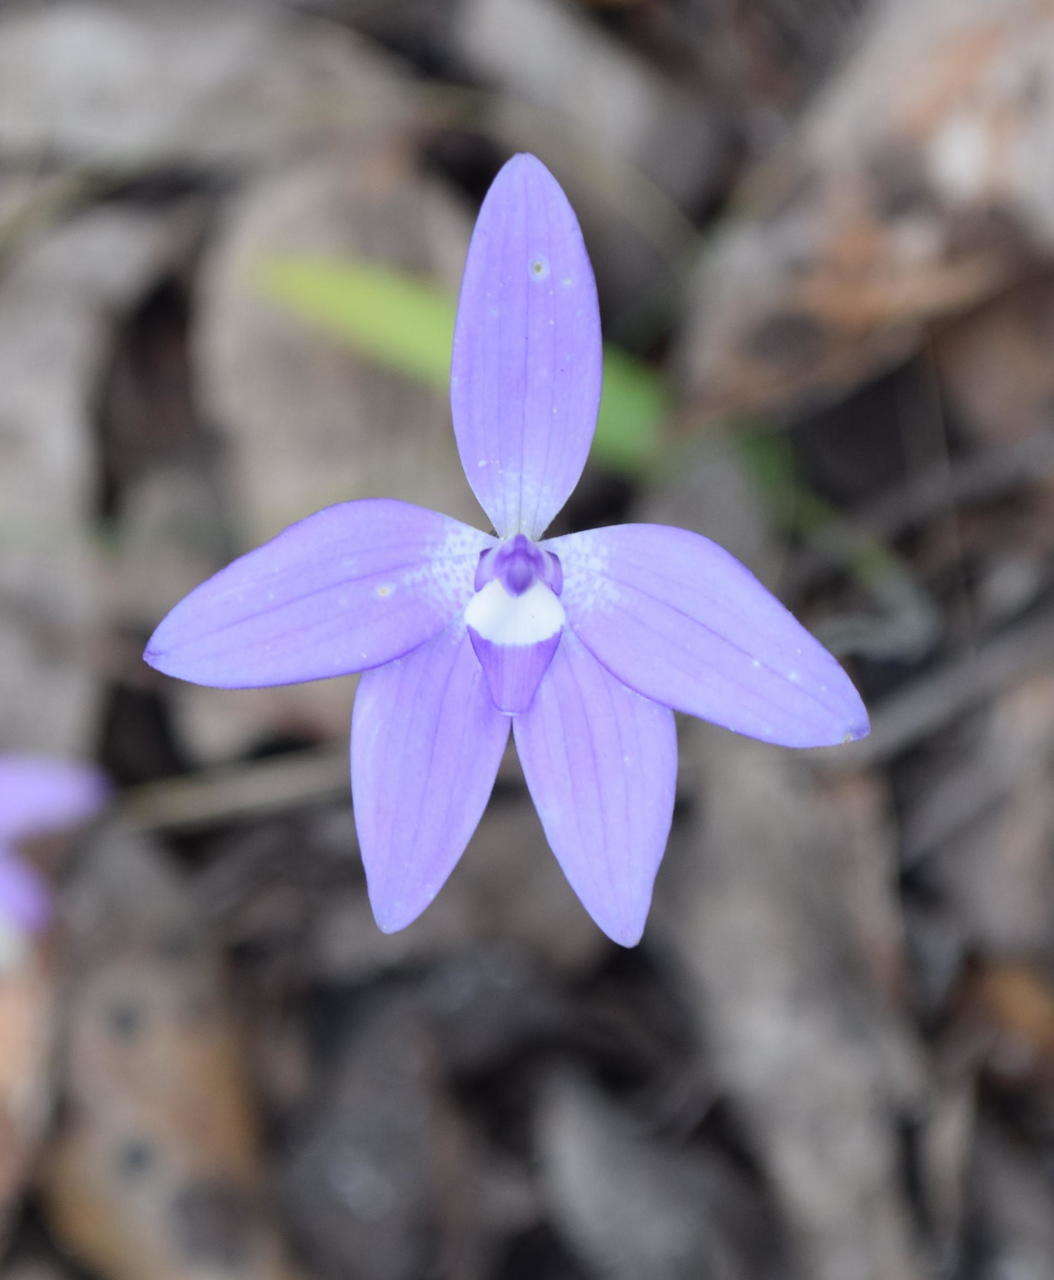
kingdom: Plantae
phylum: Tracheophyta
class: Liliopsida
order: Asparagales
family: Orchidaceae
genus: Caladenia
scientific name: Caladenia major
